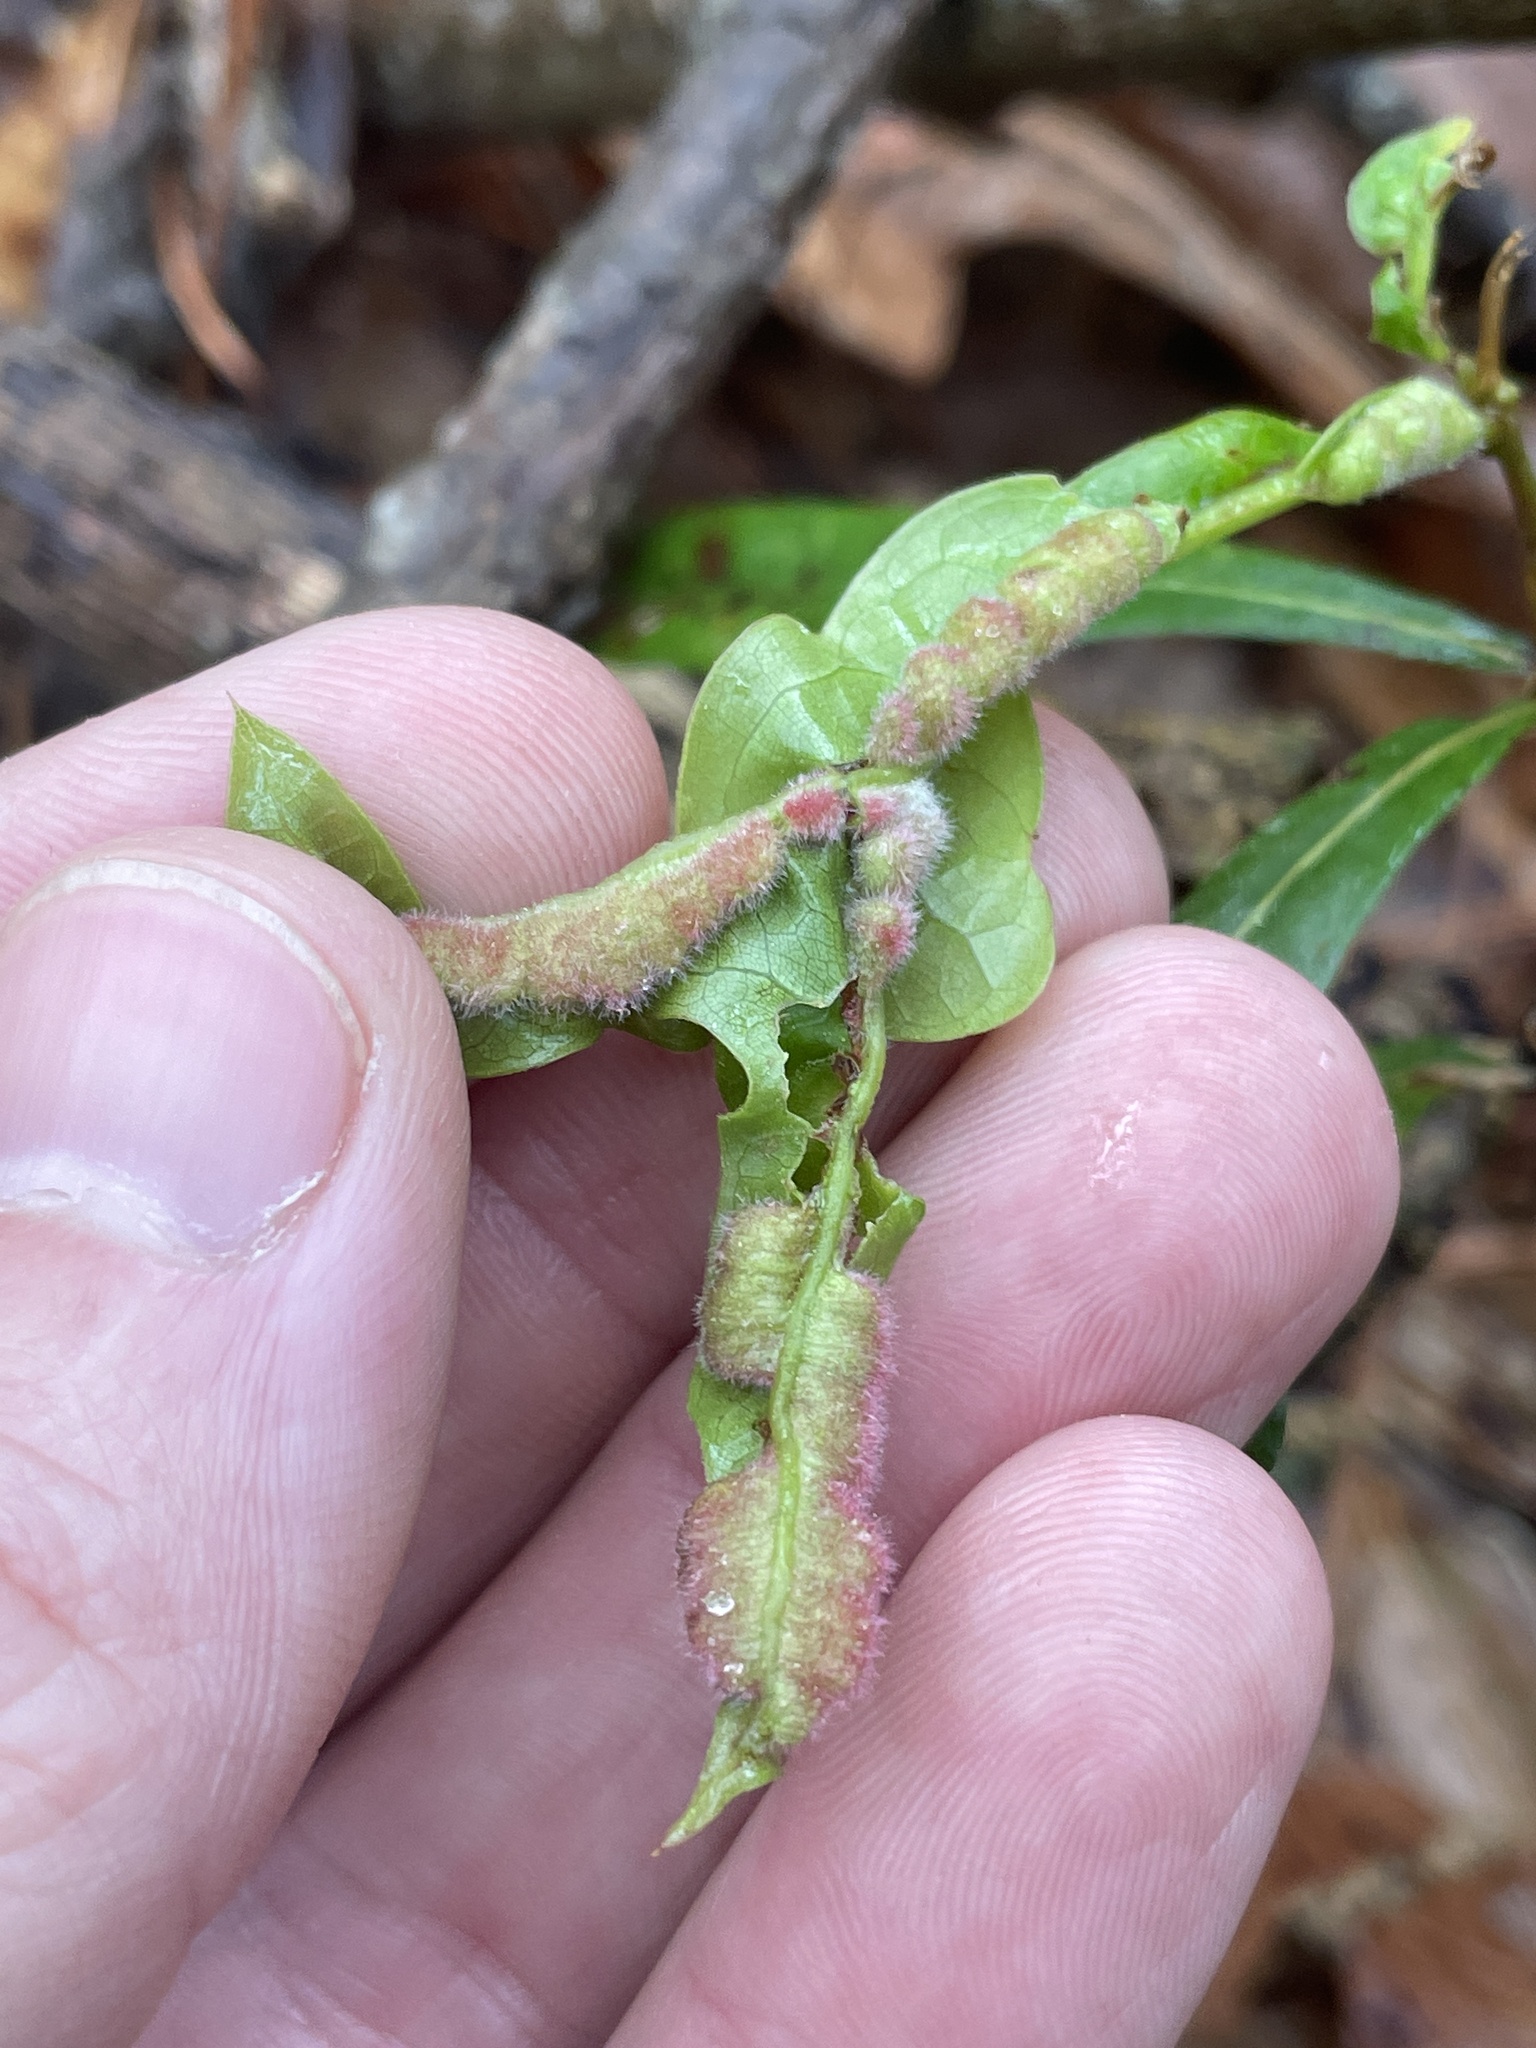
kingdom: Animalia
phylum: Arthropoda
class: Insecta
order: Diptera
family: Cecidomyiidae
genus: Macrodiplosis
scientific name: Macrodiplosis niveipila
